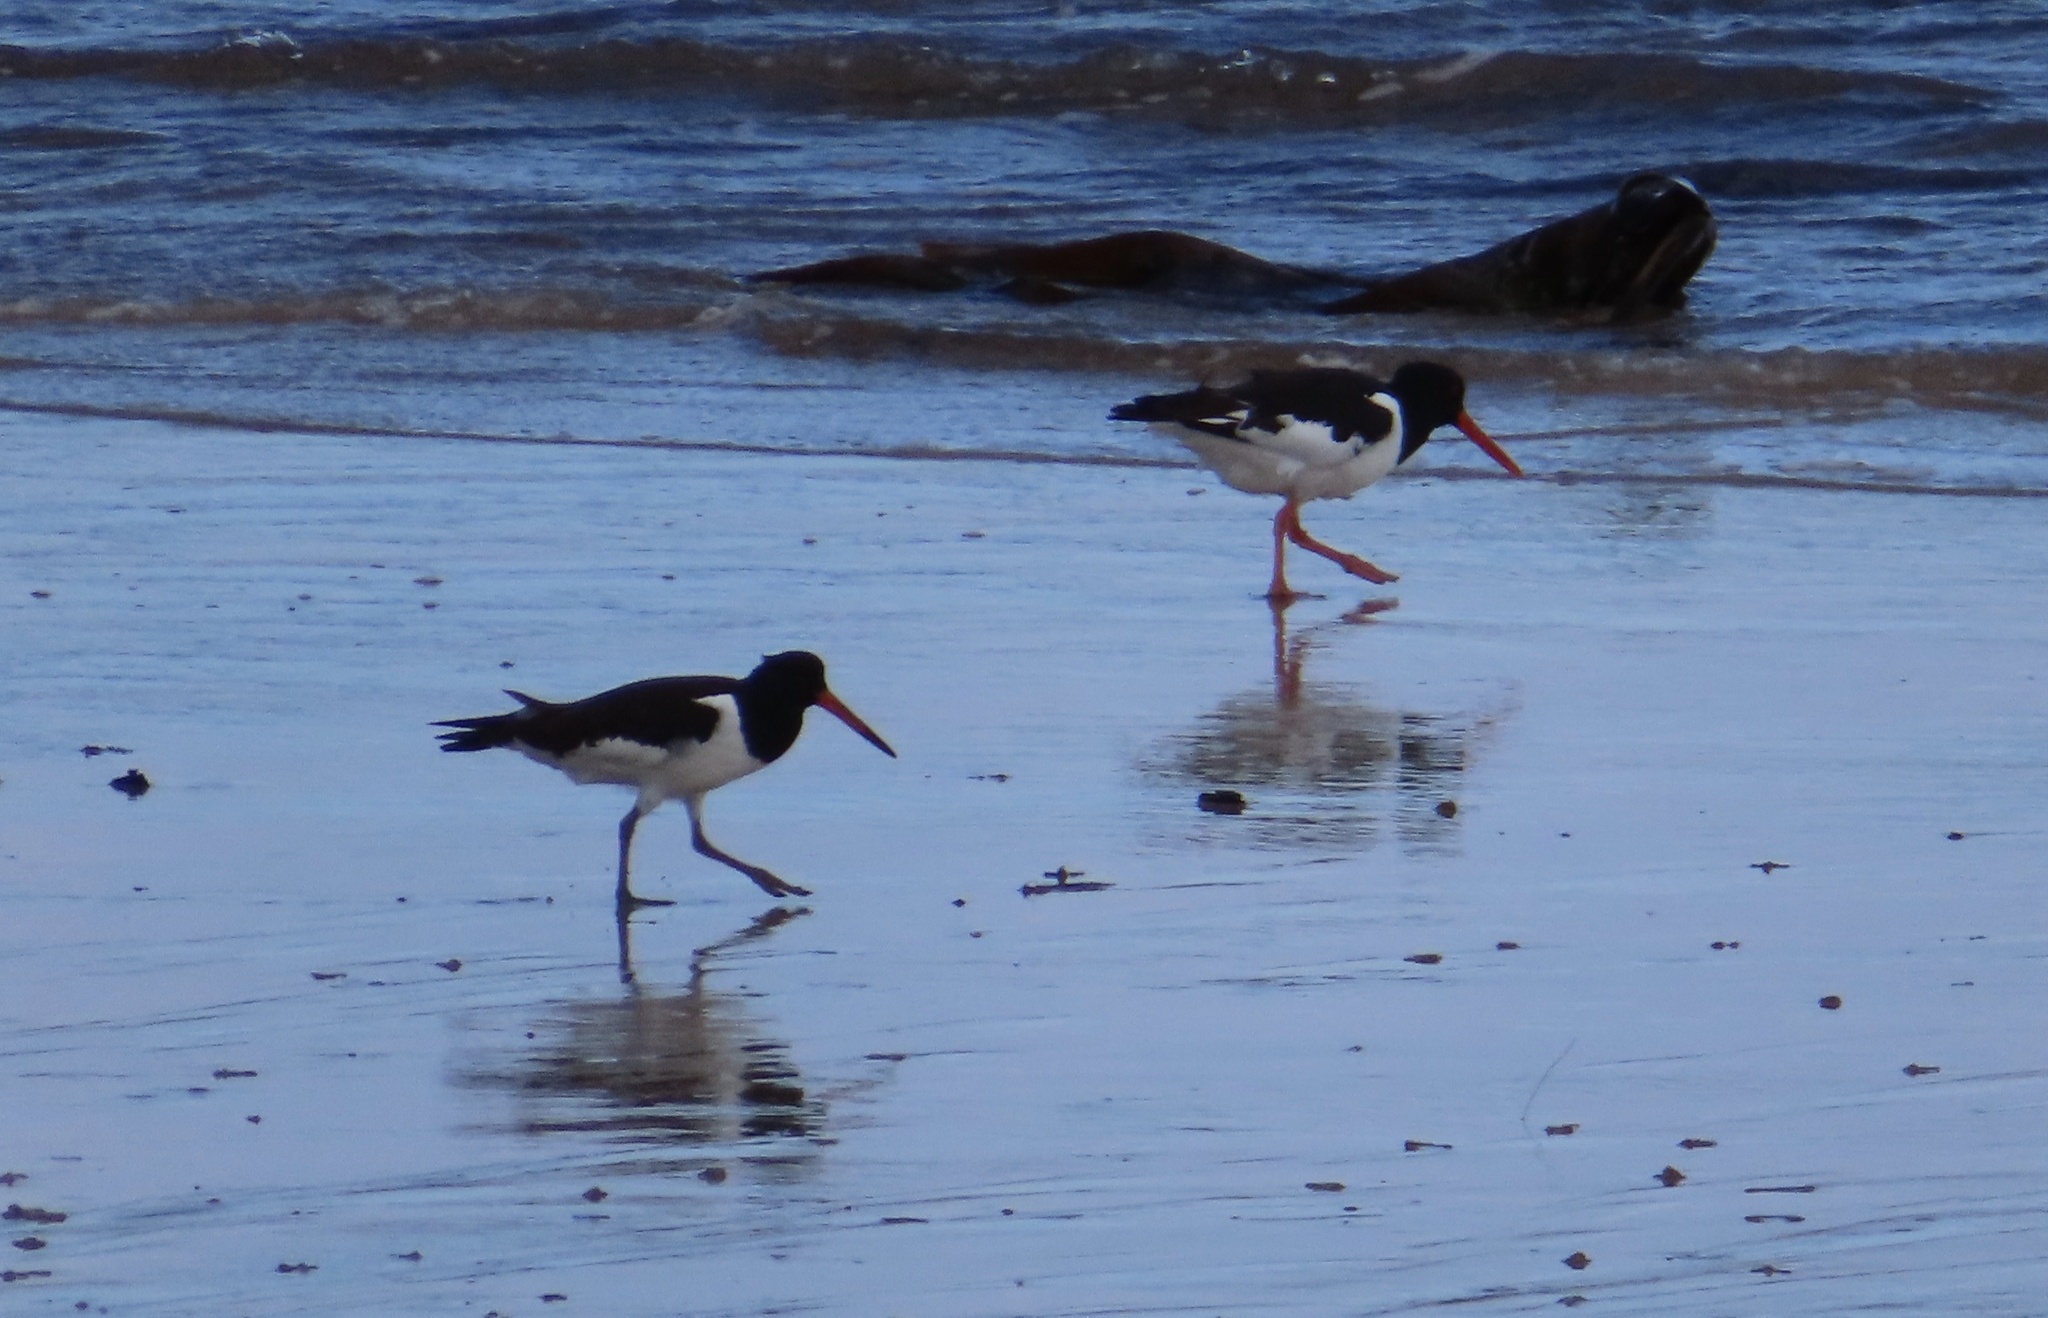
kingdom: Animalia
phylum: Chordata
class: Aves
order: Charadriiformes
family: Haematopodidae
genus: Haematopus
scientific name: Haematopus ostralegus
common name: Eurasian oystercatcher
